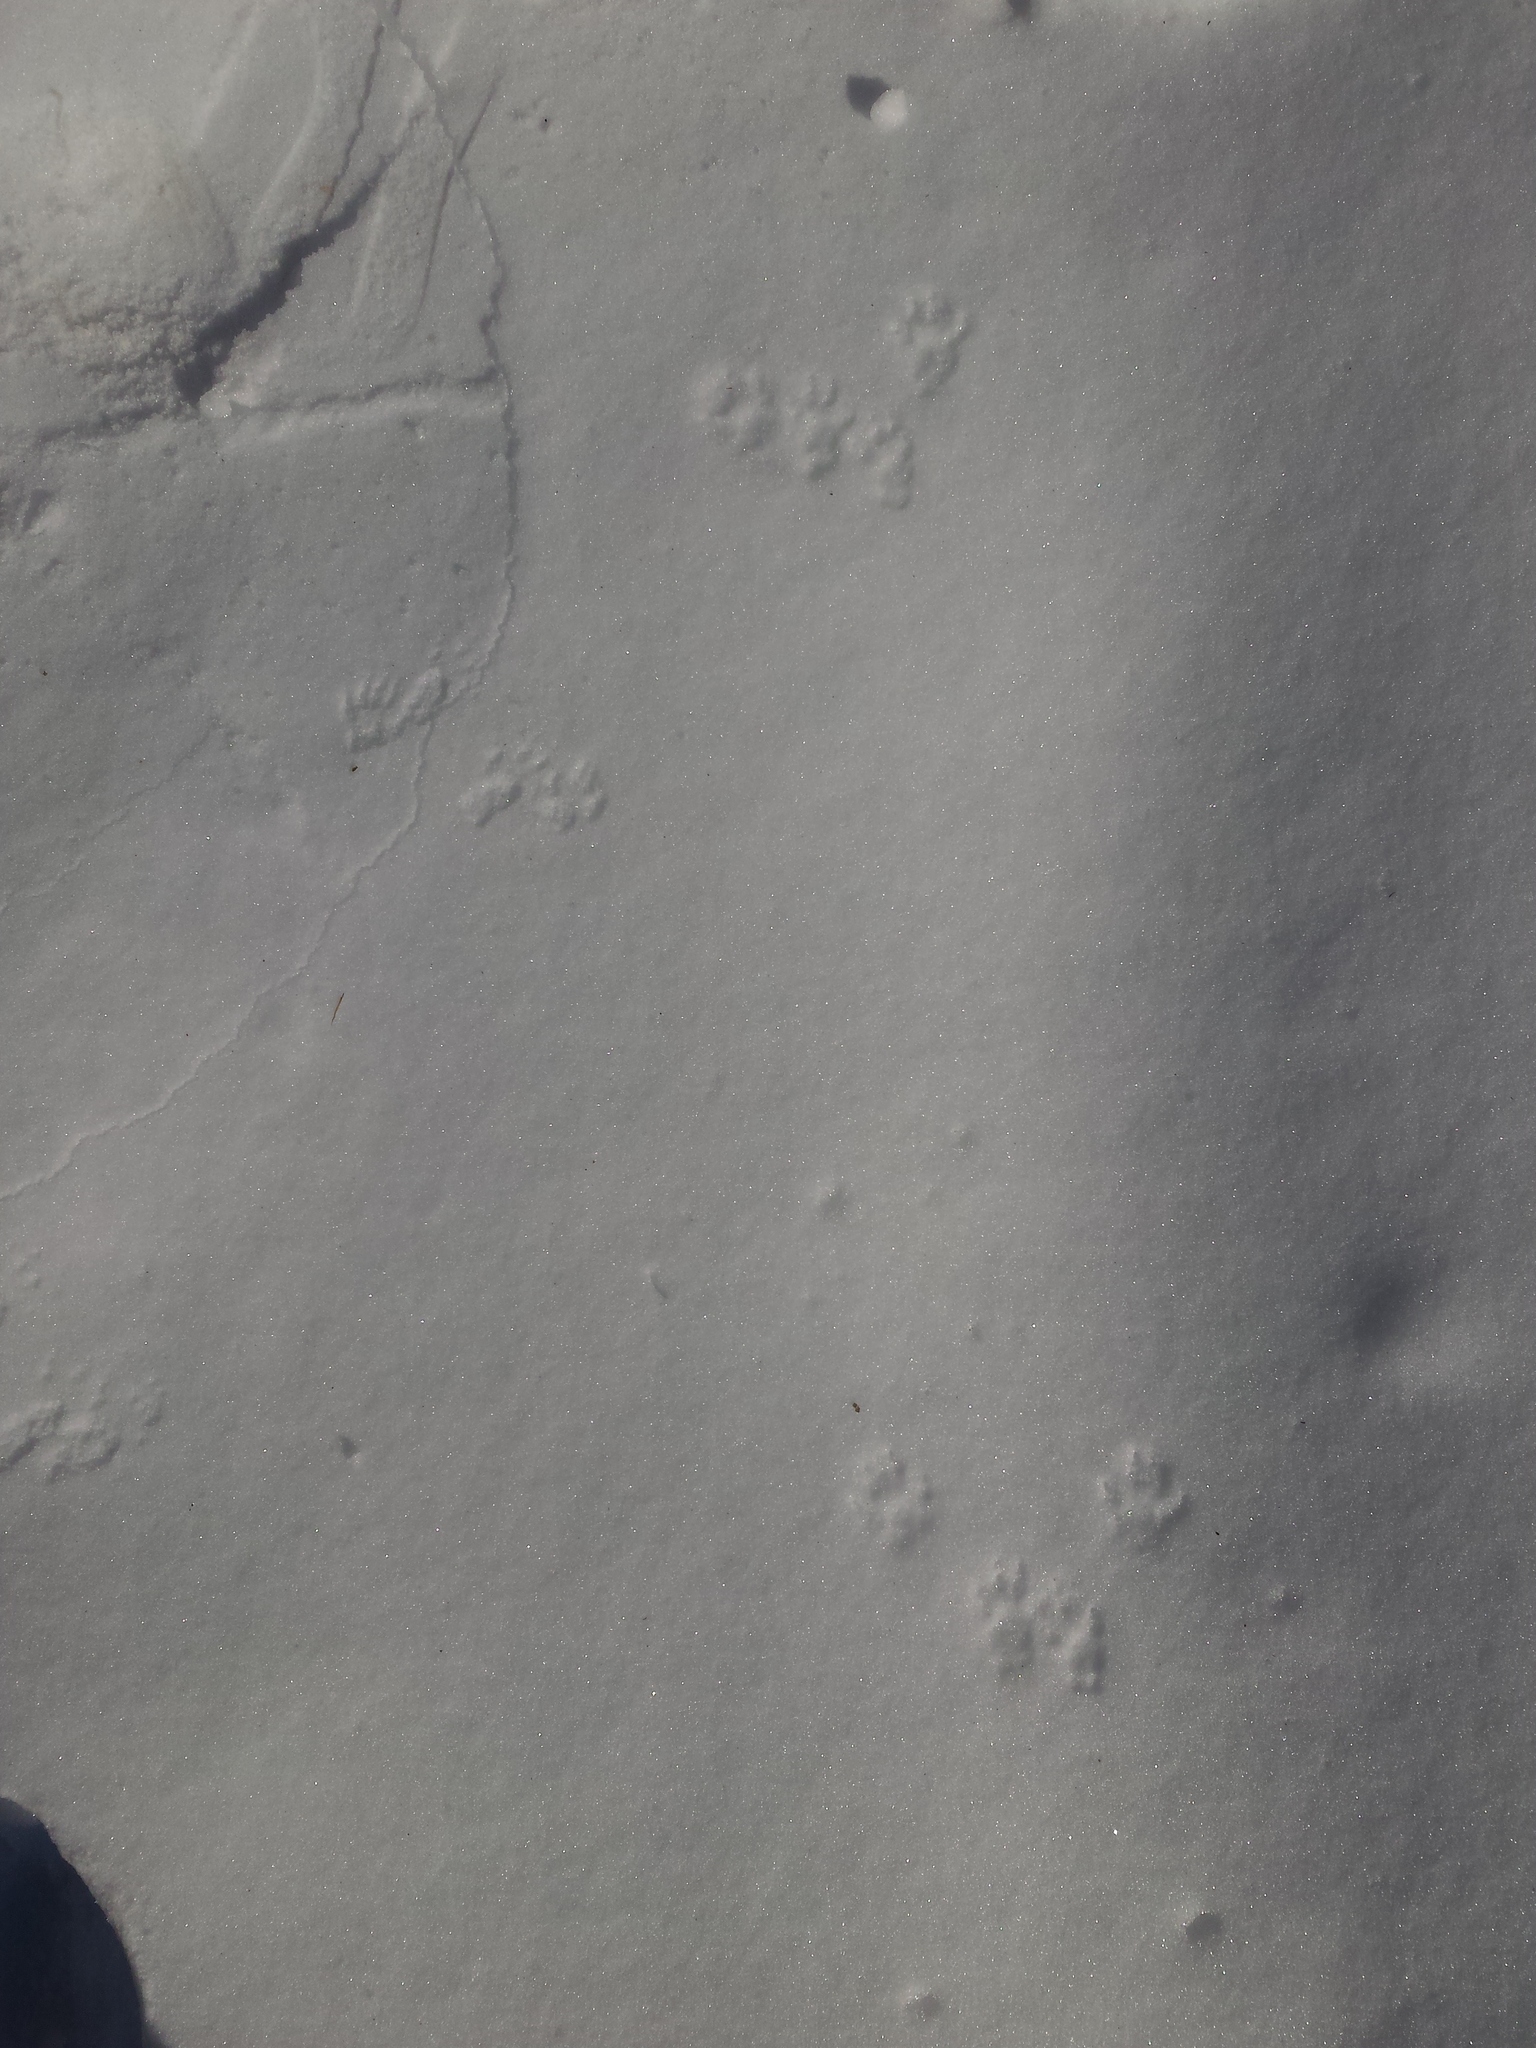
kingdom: Animalia
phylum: Chordata
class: Mammalia
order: Rodentia
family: Sciuridae
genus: Sciurus
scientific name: Sciurus carolinensis
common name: Eastern gray squirrel
